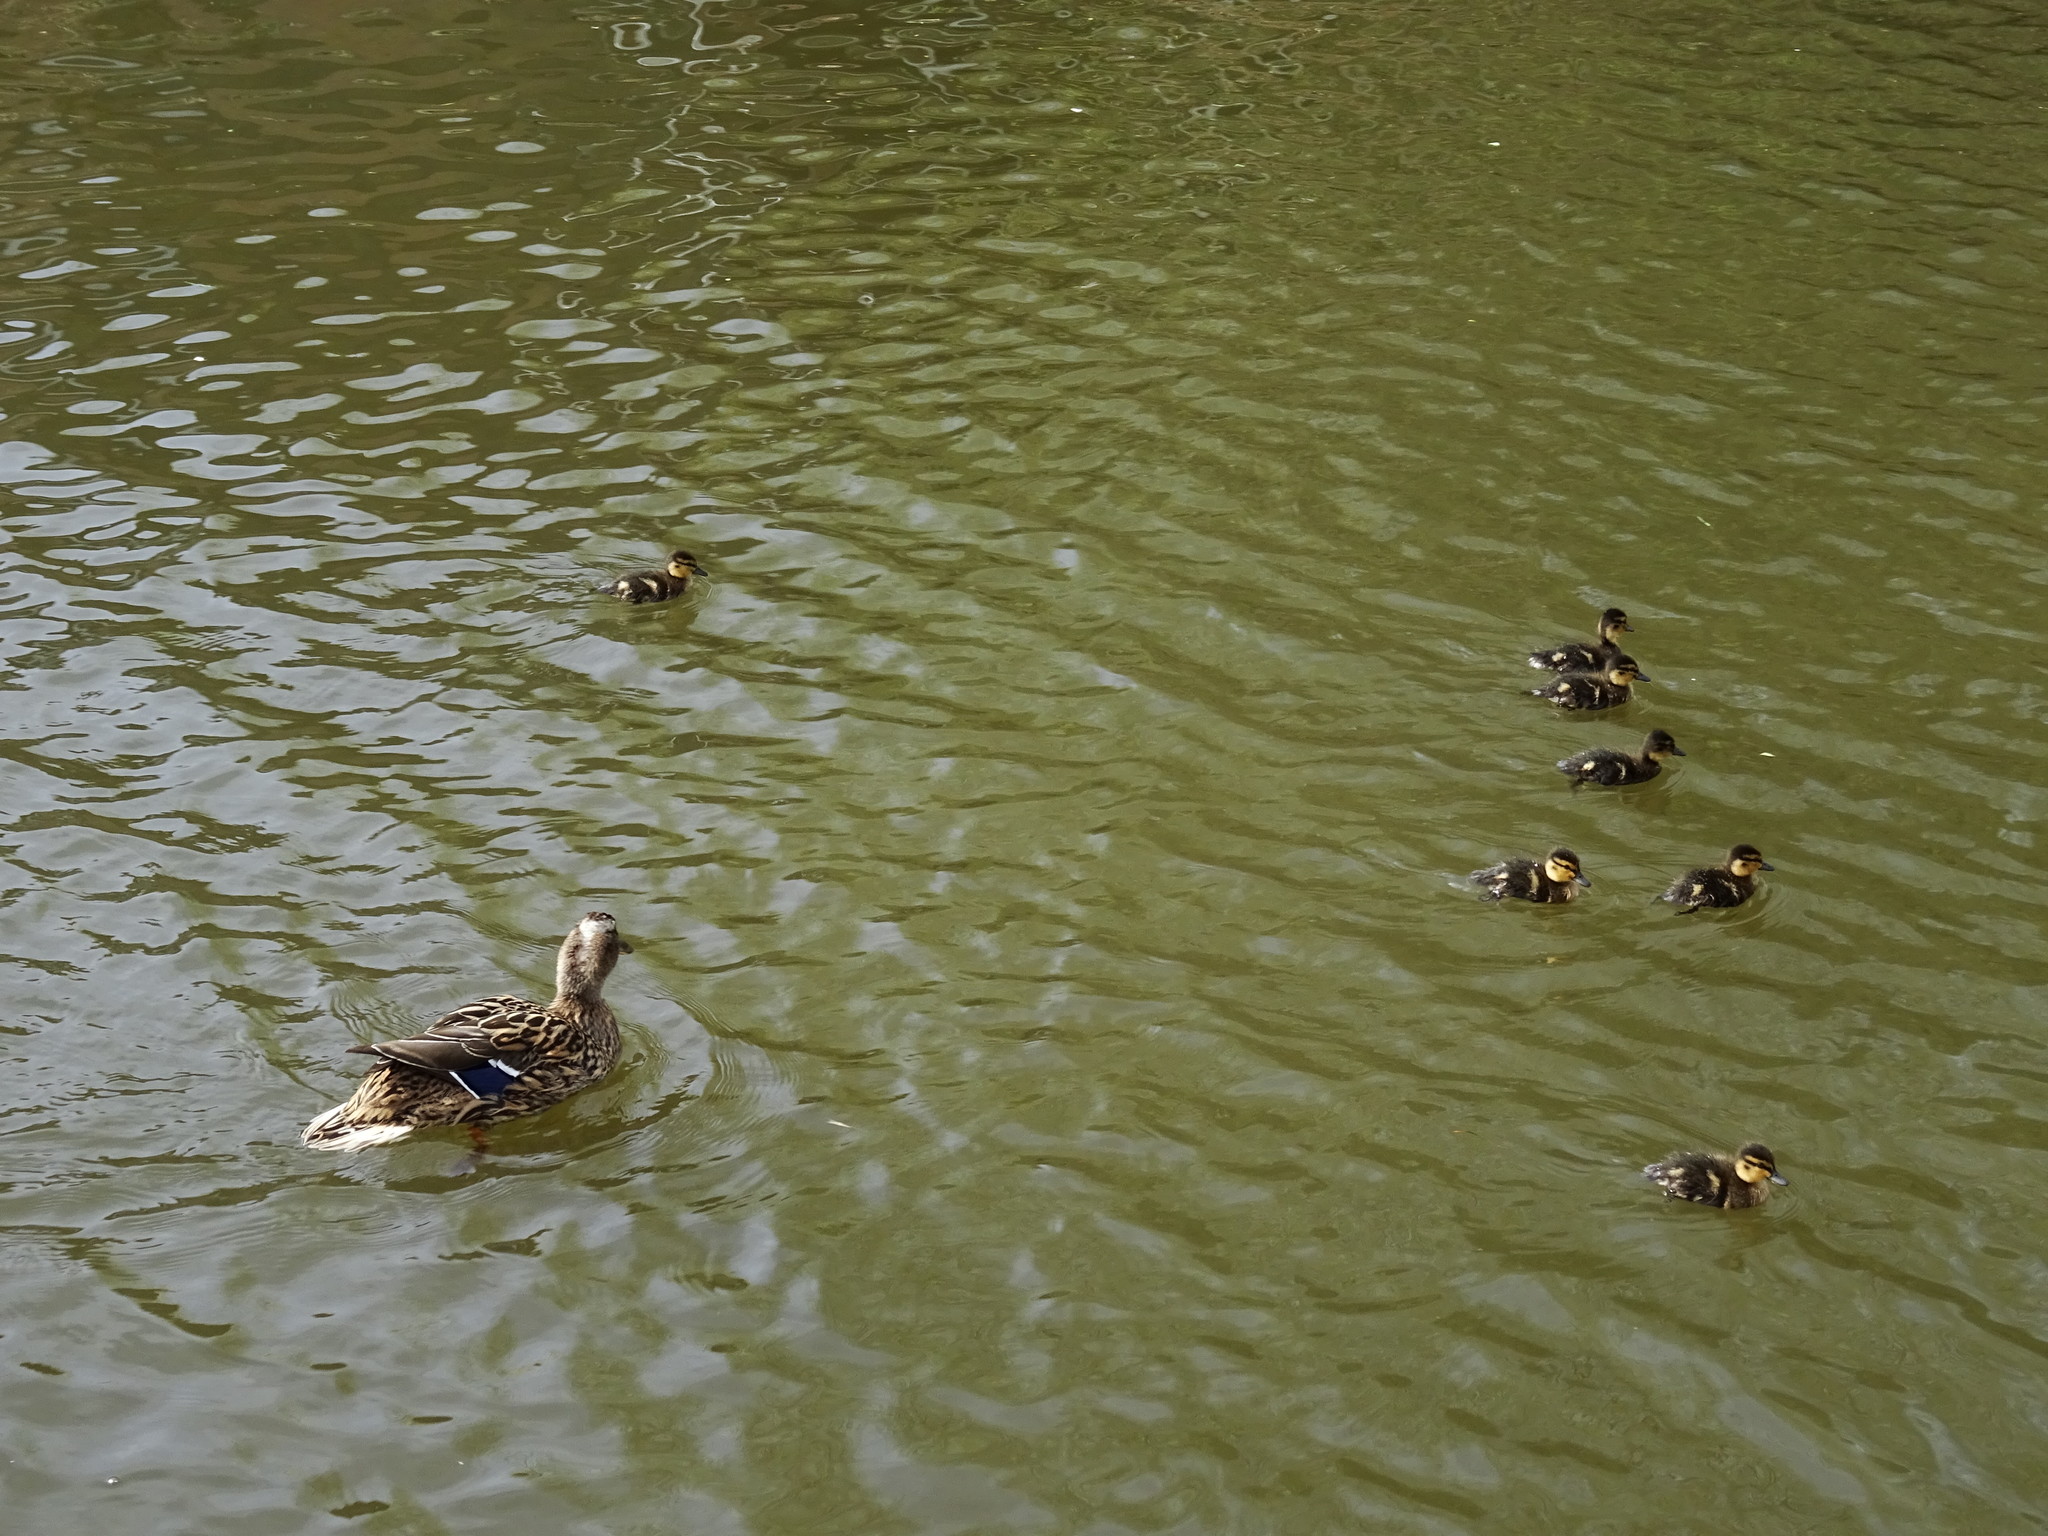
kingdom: Animalia
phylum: Chordata
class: Aves
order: Anseriformes
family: Anatidae
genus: Anas
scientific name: Anas platyrhynchos
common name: Mallard
